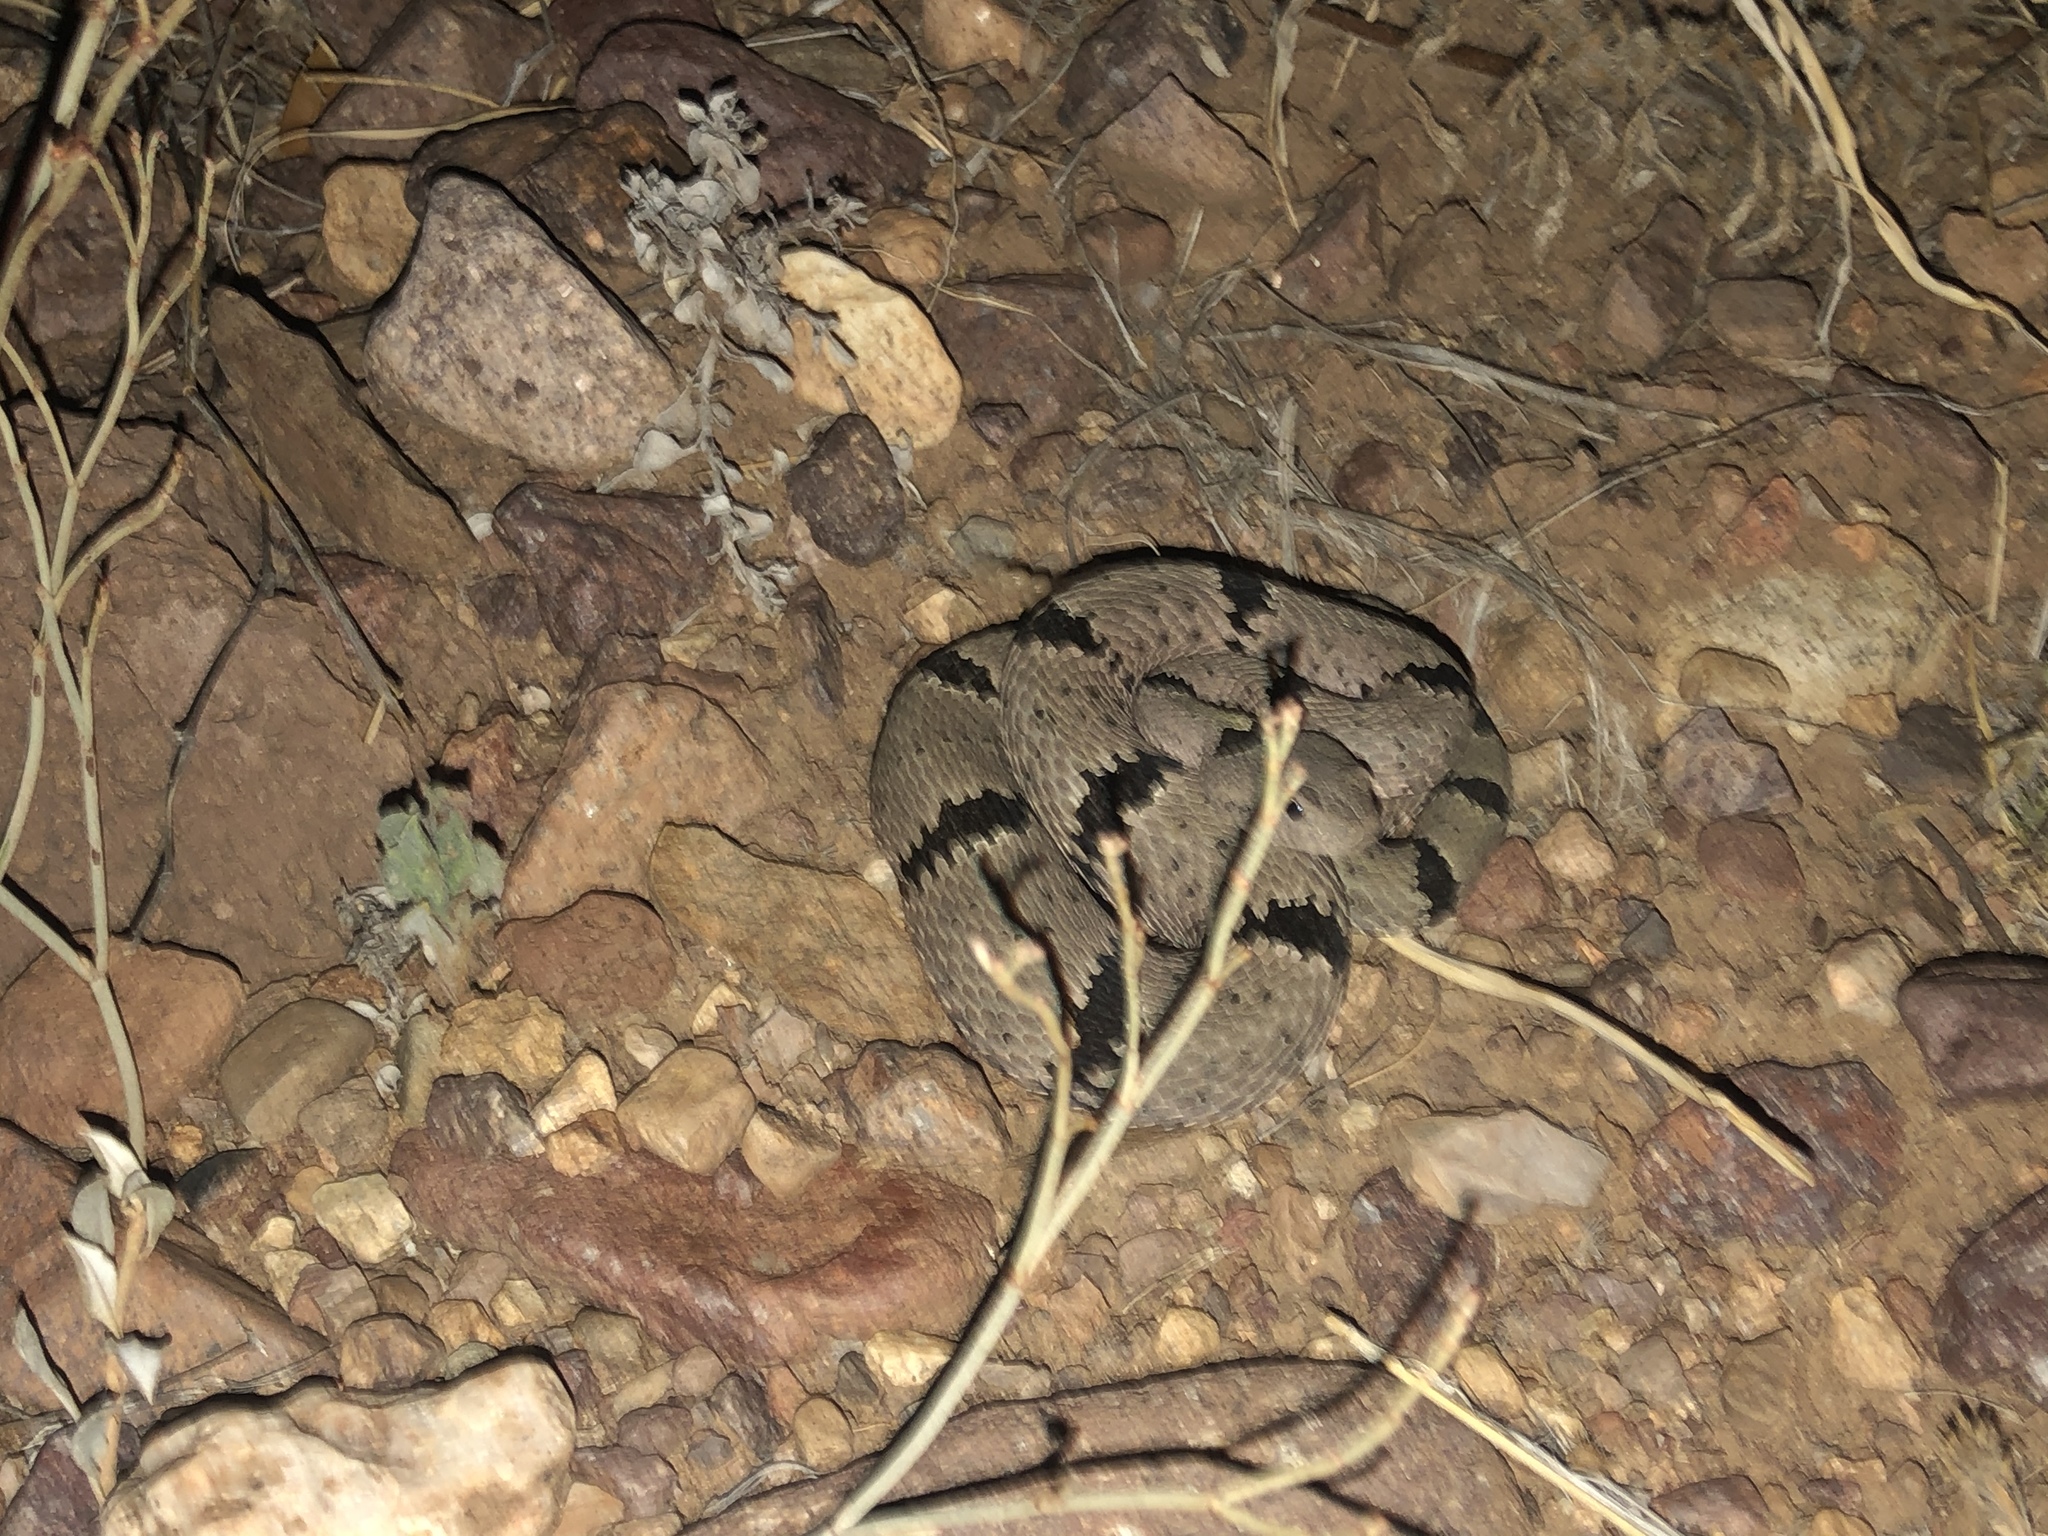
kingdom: Animalia
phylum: Chordata
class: Squamata
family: Viperidae
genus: Crotalus
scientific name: Crotalus lepidus
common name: Rock rattlesnake
